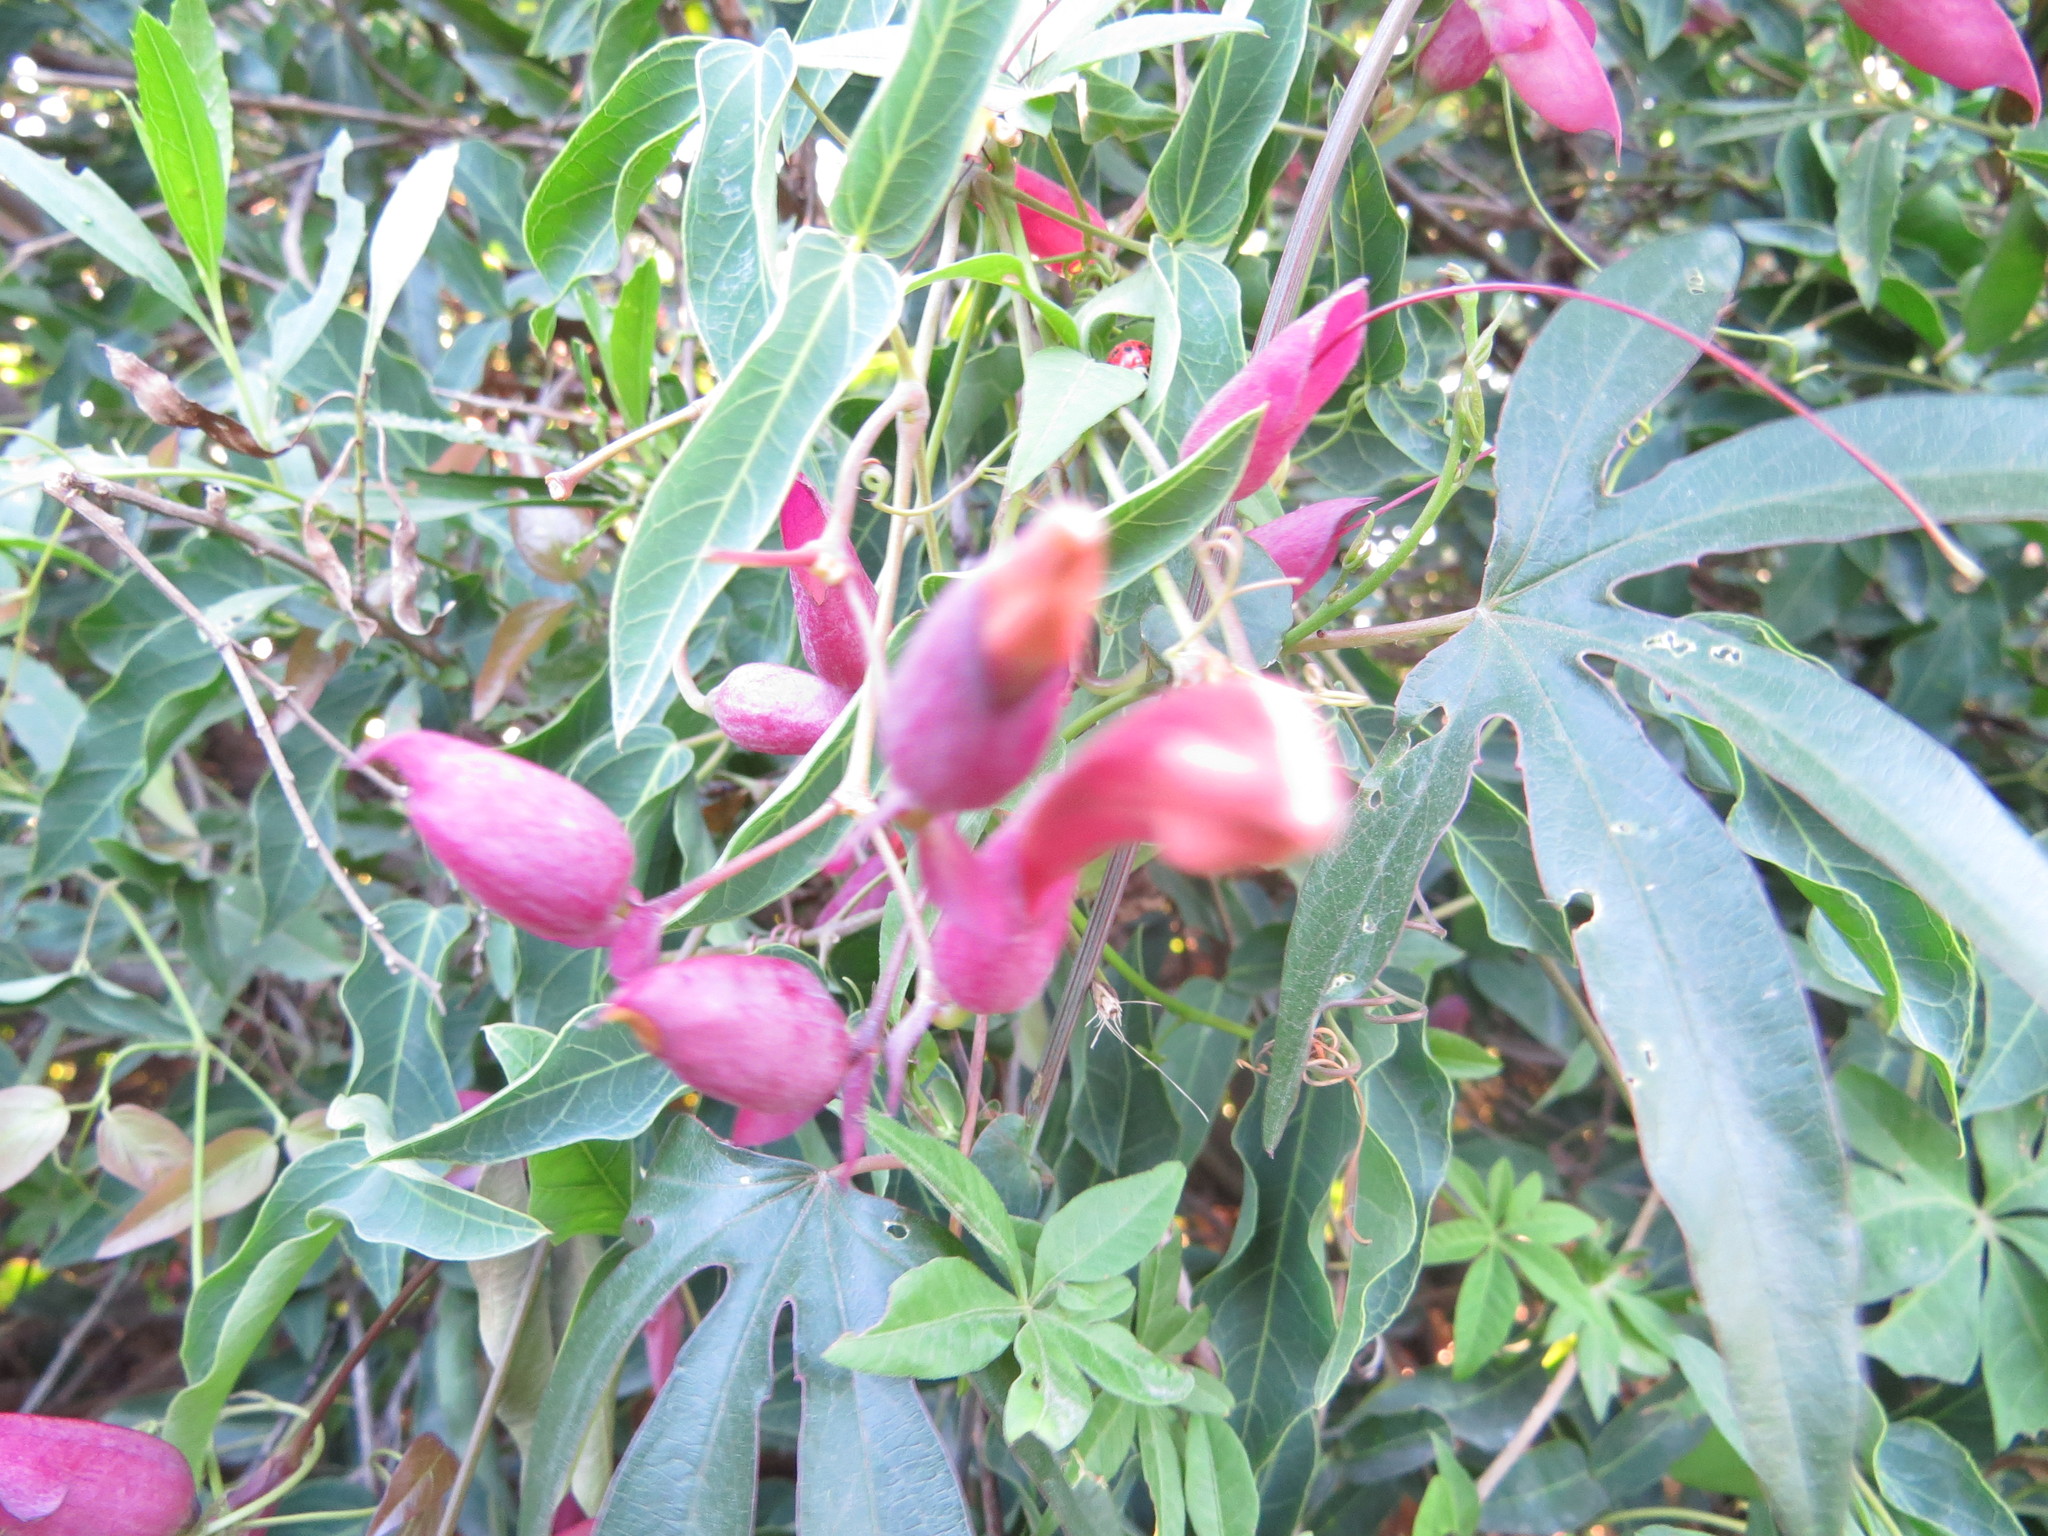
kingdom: Plantae
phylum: Tracheophyta
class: Magnoliopsida
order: Lamiales
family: Bignoniaceae
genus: Dolichandra
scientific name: Dolichandra cynanchoides
